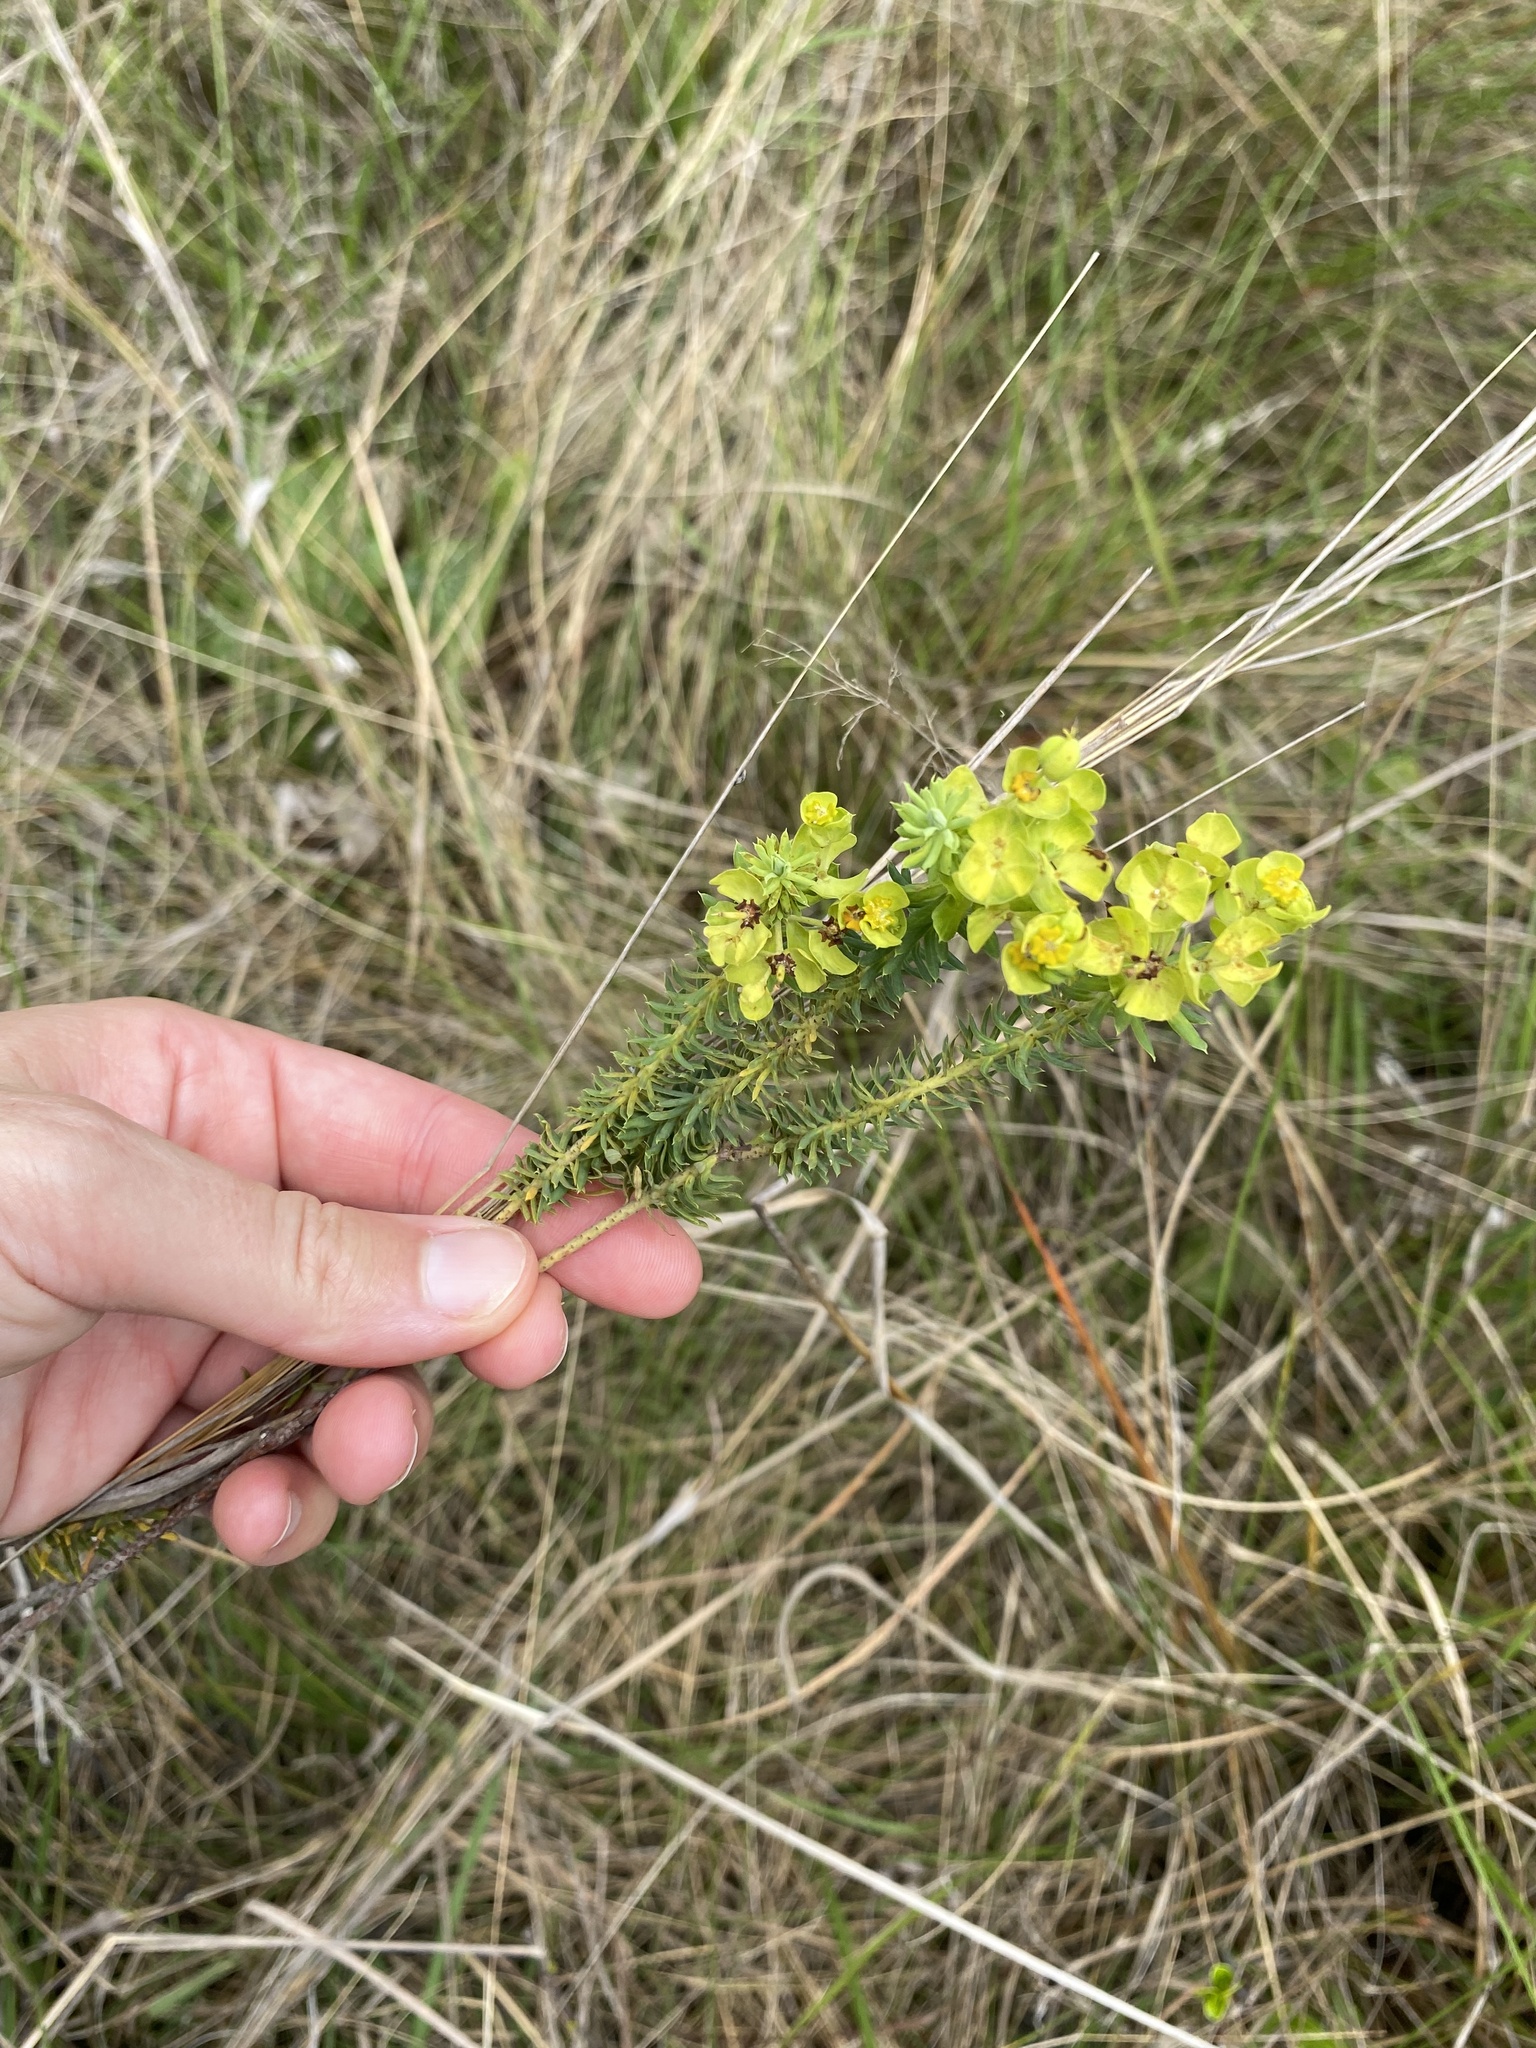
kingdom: Plantae
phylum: Tracheophyta
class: Magnoliopsida
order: Malpighiales
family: Euphorbiaceae
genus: Euphorbia
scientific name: Euphorbia natalensis
